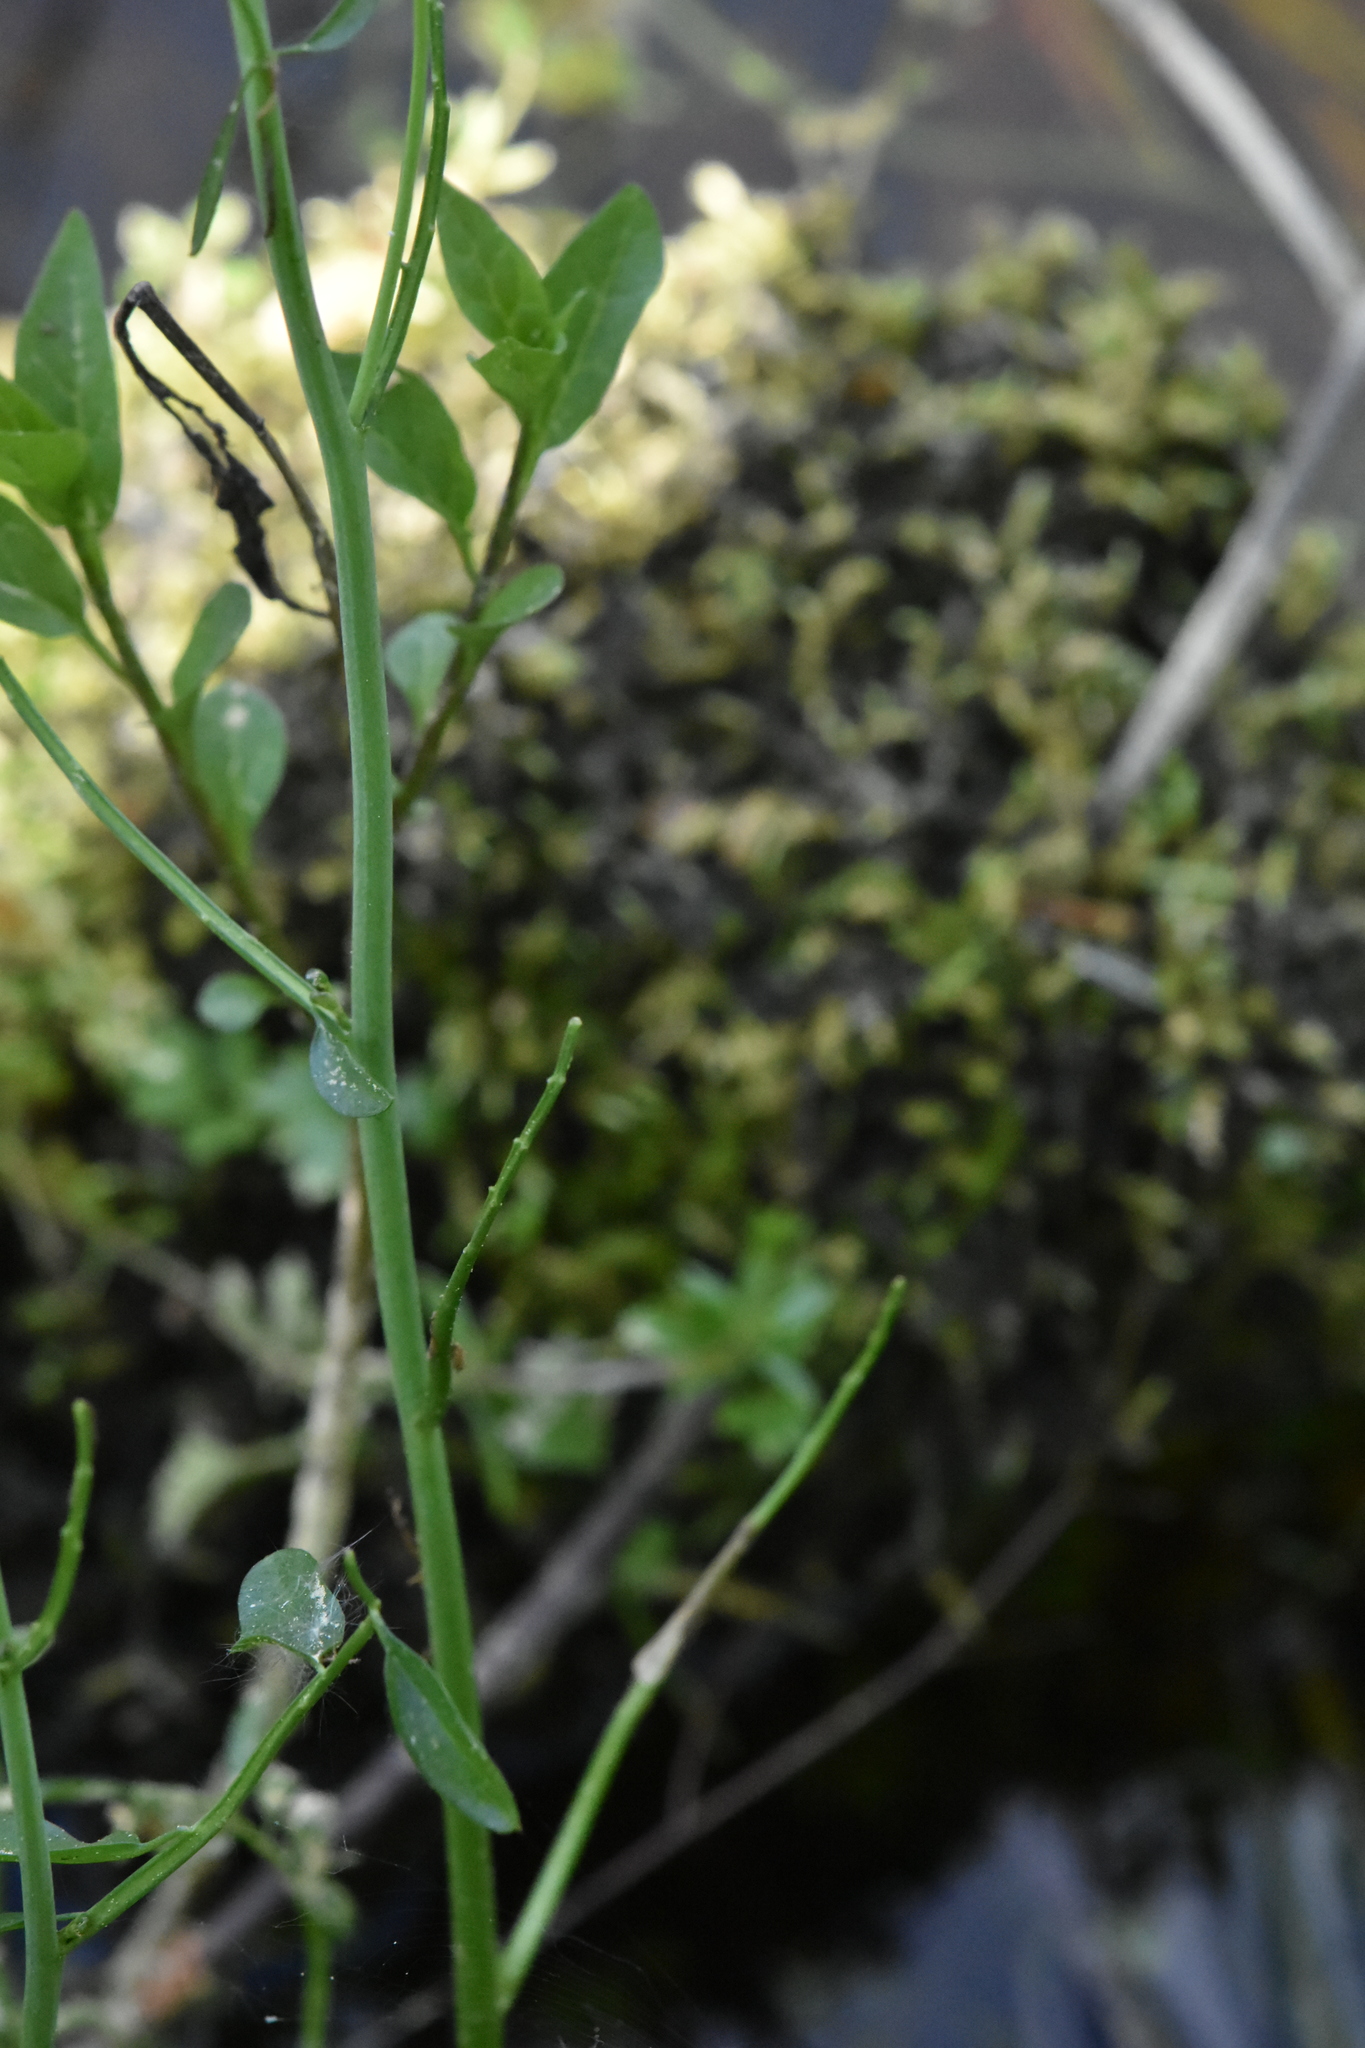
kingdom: Plantae
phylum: Tracheophyta
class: Magnoliopsida
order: Brassicales
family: Brassicaceae
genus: Cardamine
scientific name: Cardamine dentata
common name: Toothed bittercress
